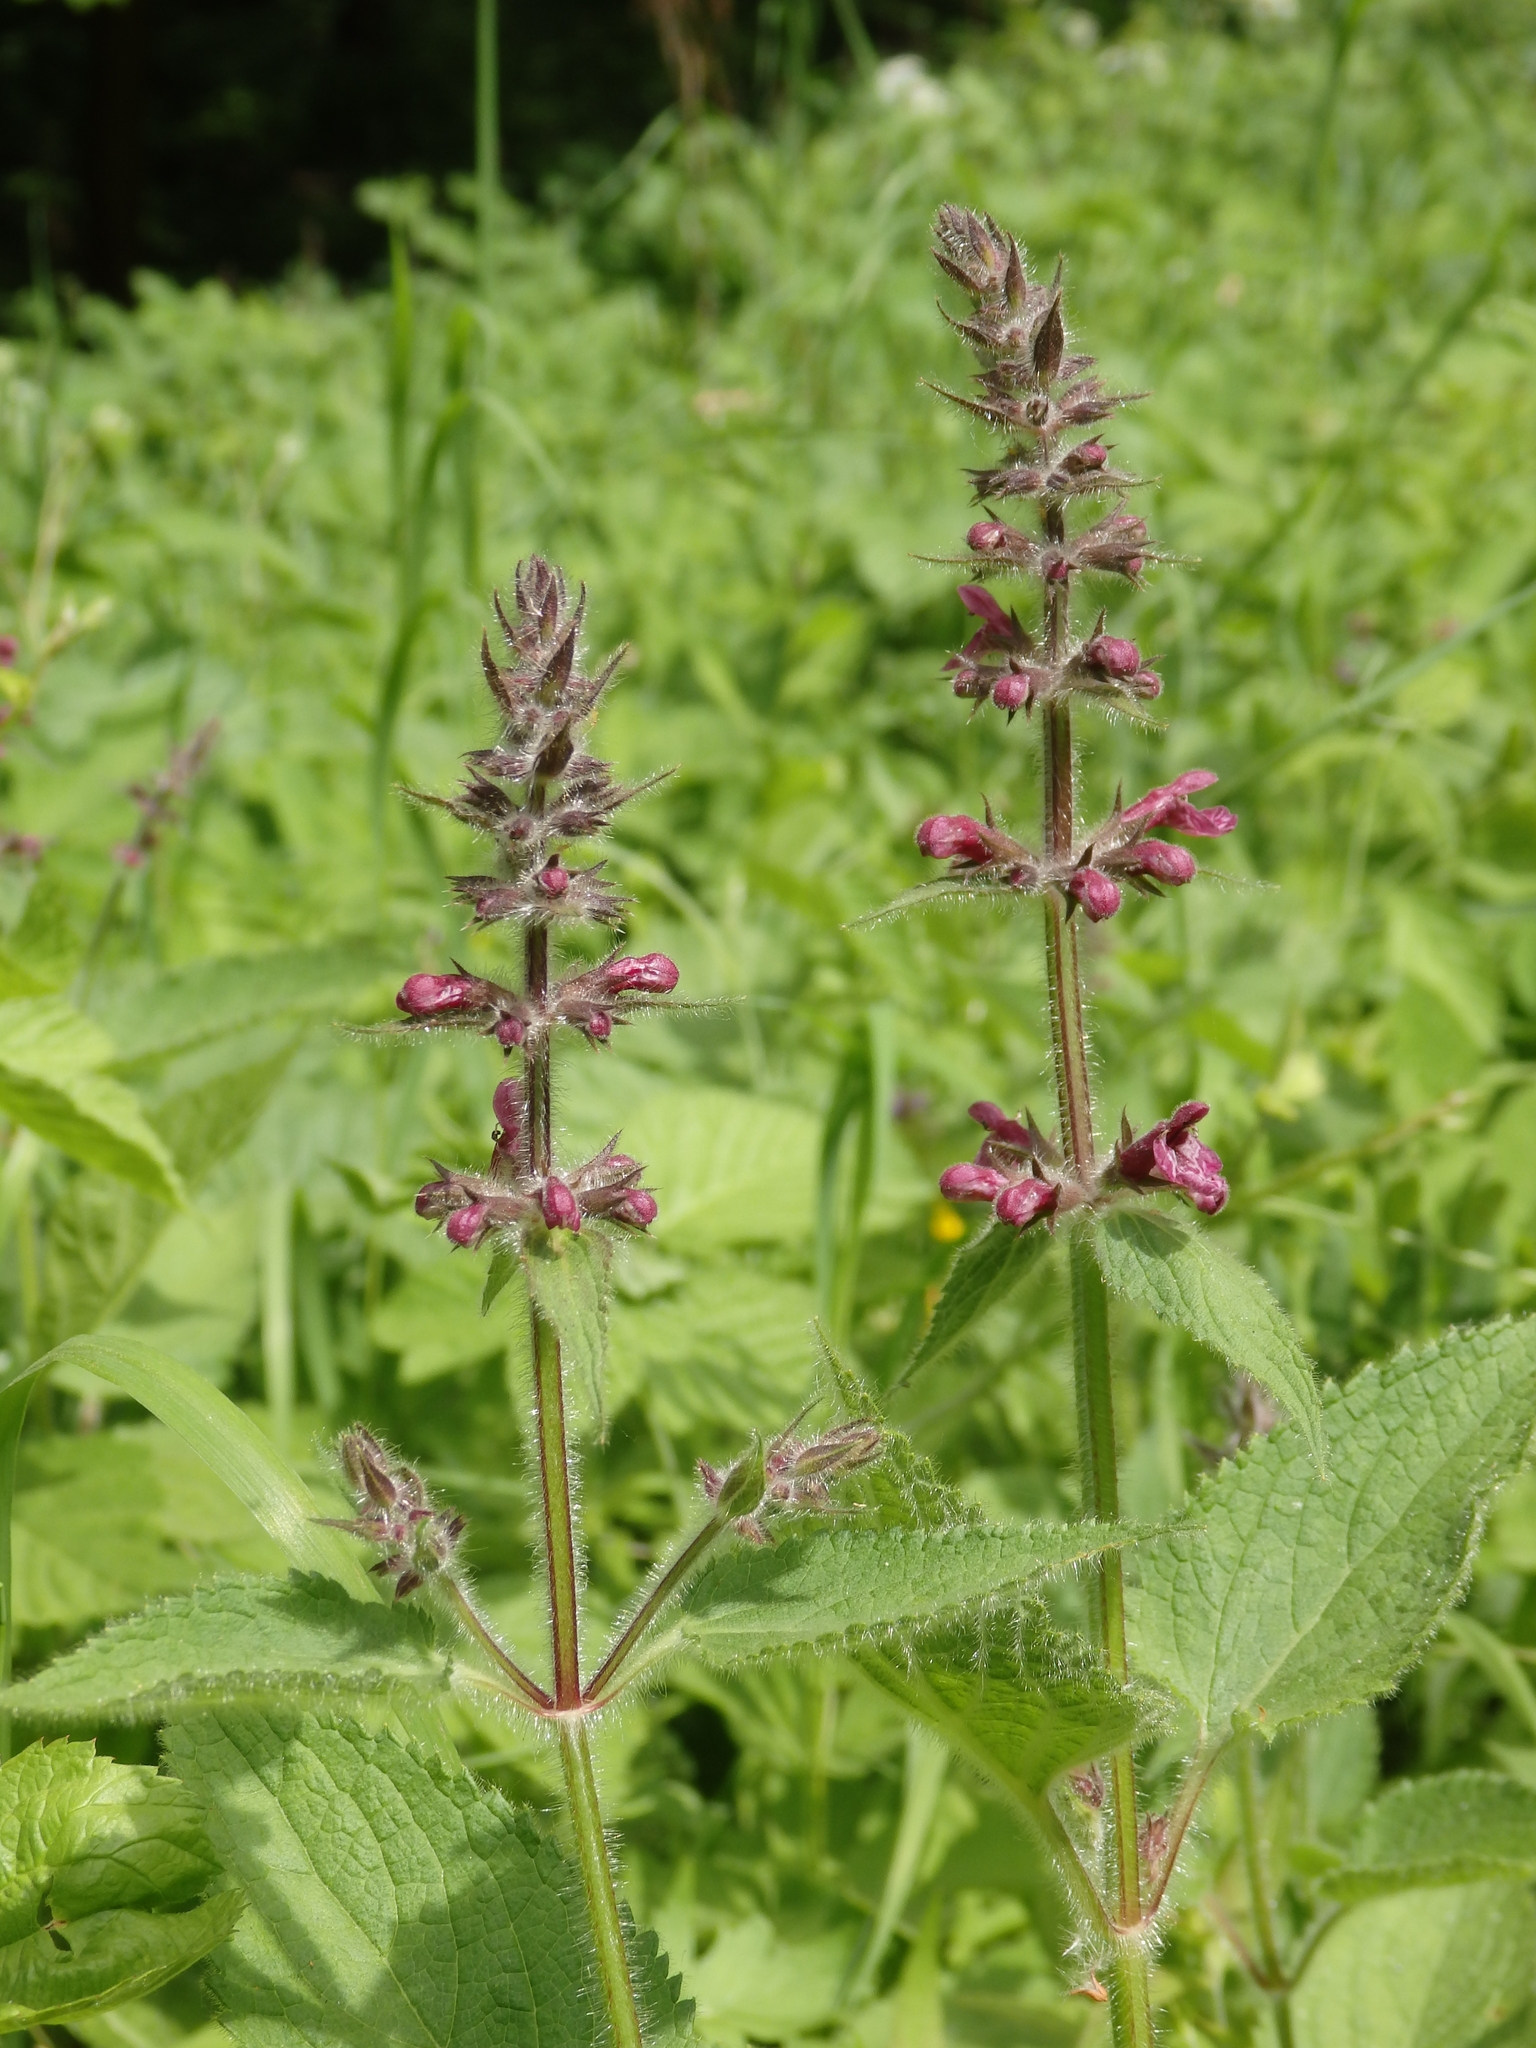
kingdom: Plantae
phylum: Tracheophyta
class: Magnoliopsida
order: Lamiales
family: Lamiaceae
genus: Stachys
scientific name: Stachys sylvatica
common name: Hedge woundwort
